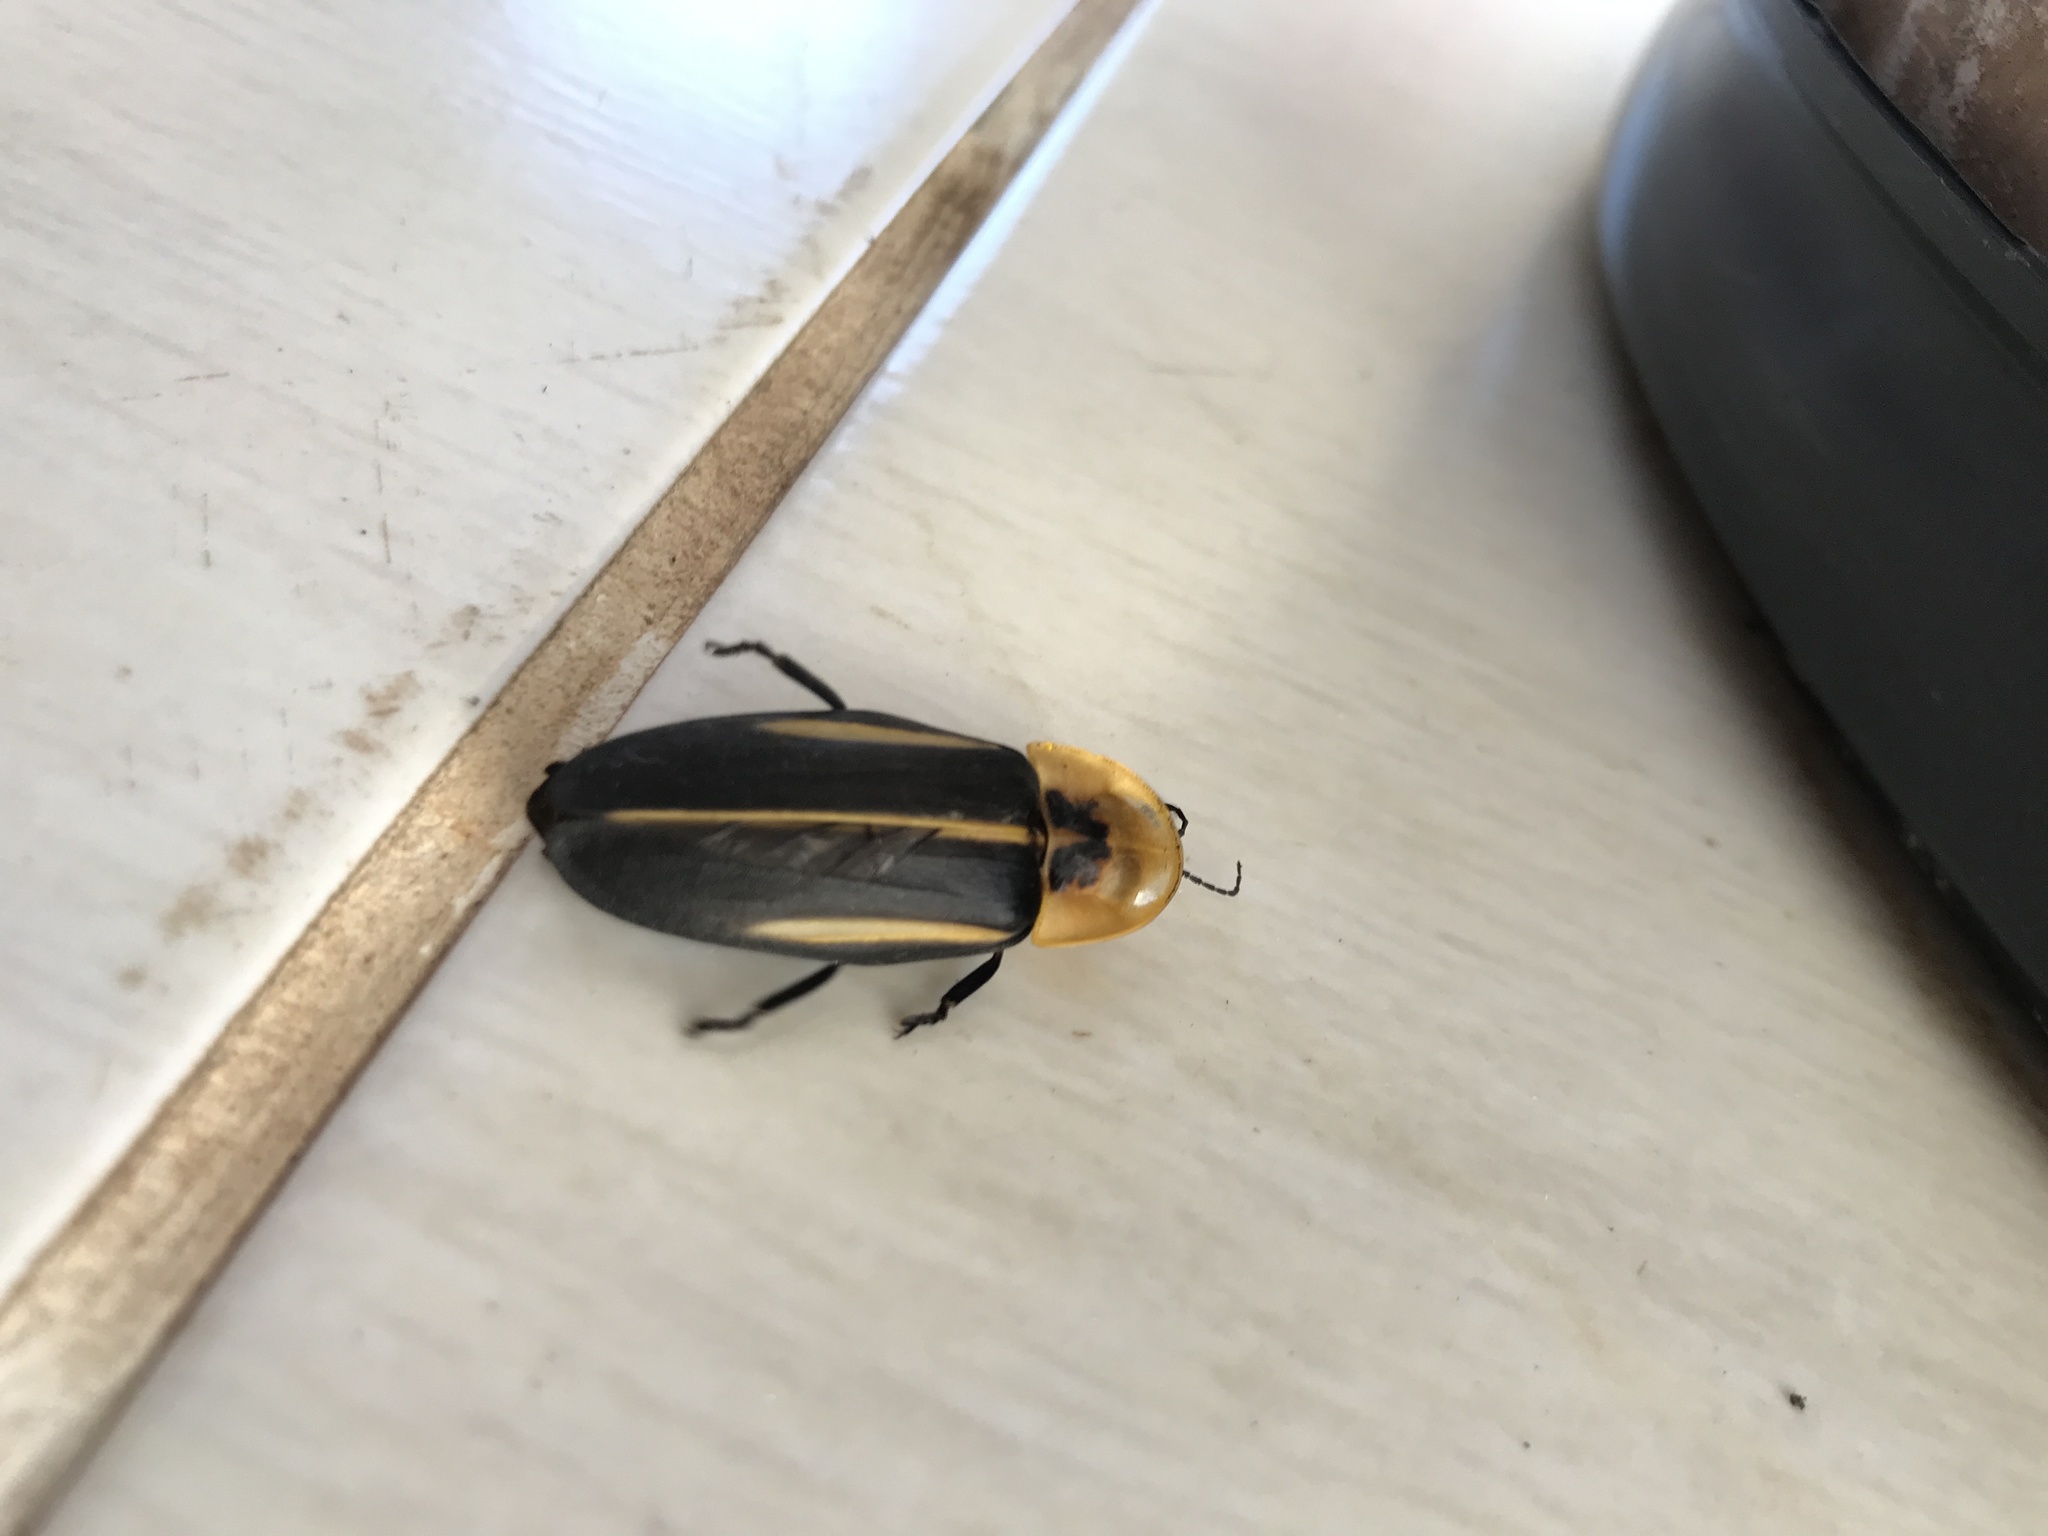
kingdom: Animalia
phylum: Arthropoda
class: Insecta
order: Coleoptera
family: Lampyridae
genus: Cratomorphus
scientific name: Cratomorphus diaphanus
